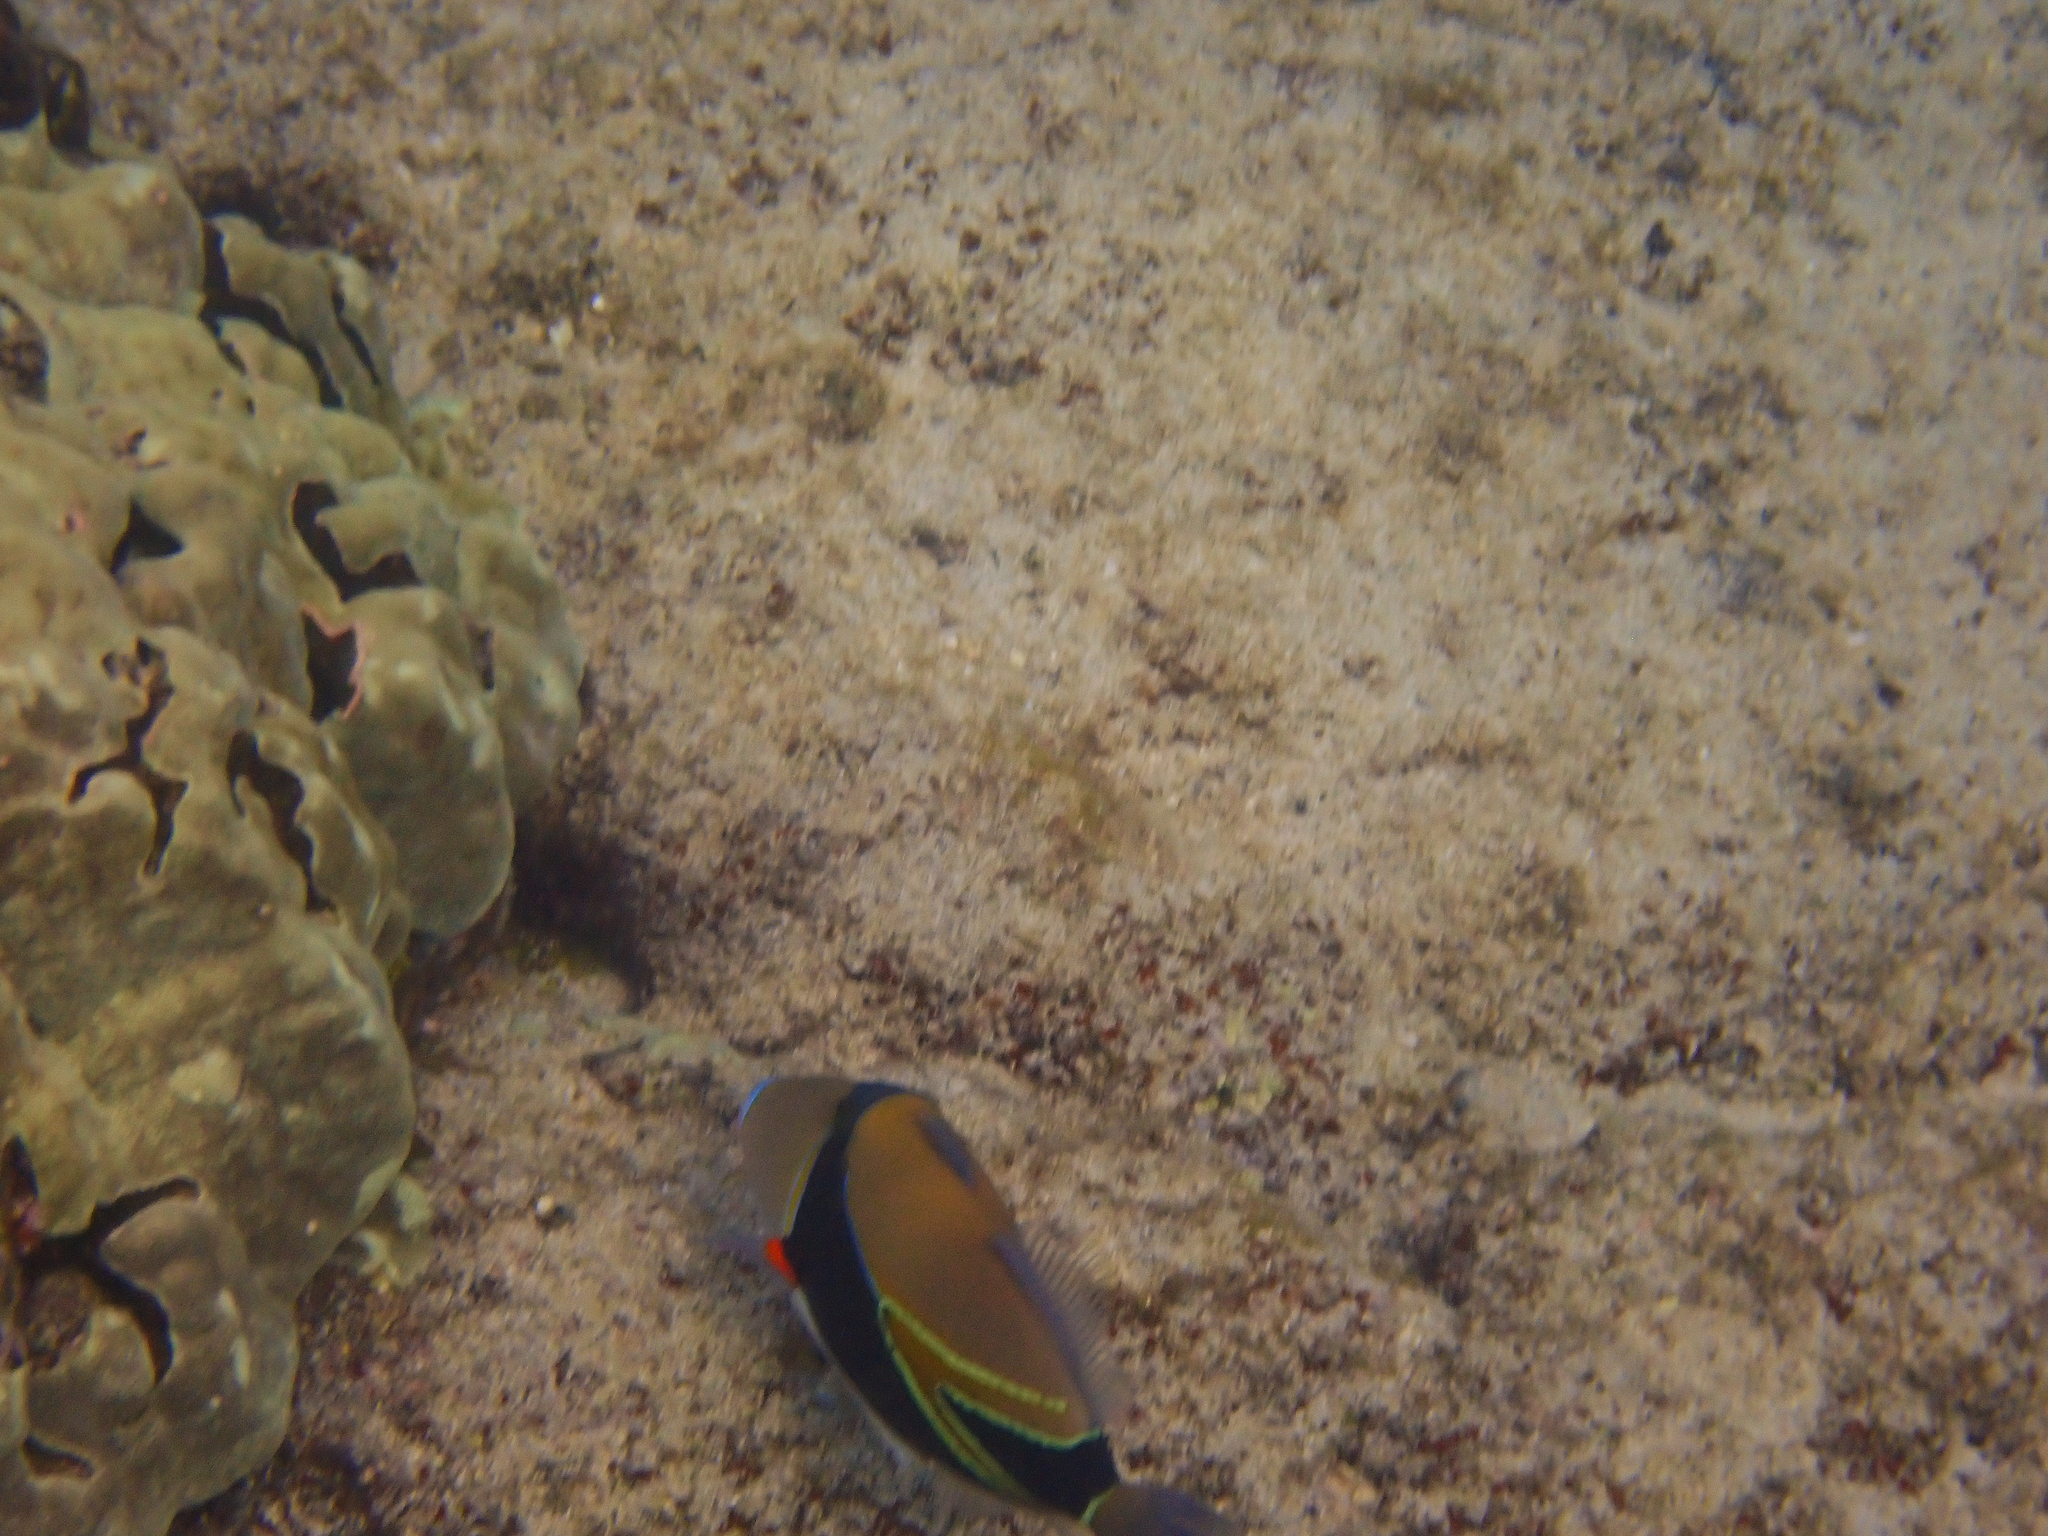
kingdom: Animalia
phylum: Chordata
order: Tetraodontiformes
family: Balistidae
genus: Rhinecanthus
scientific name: Rhinecanthus rectangulus
